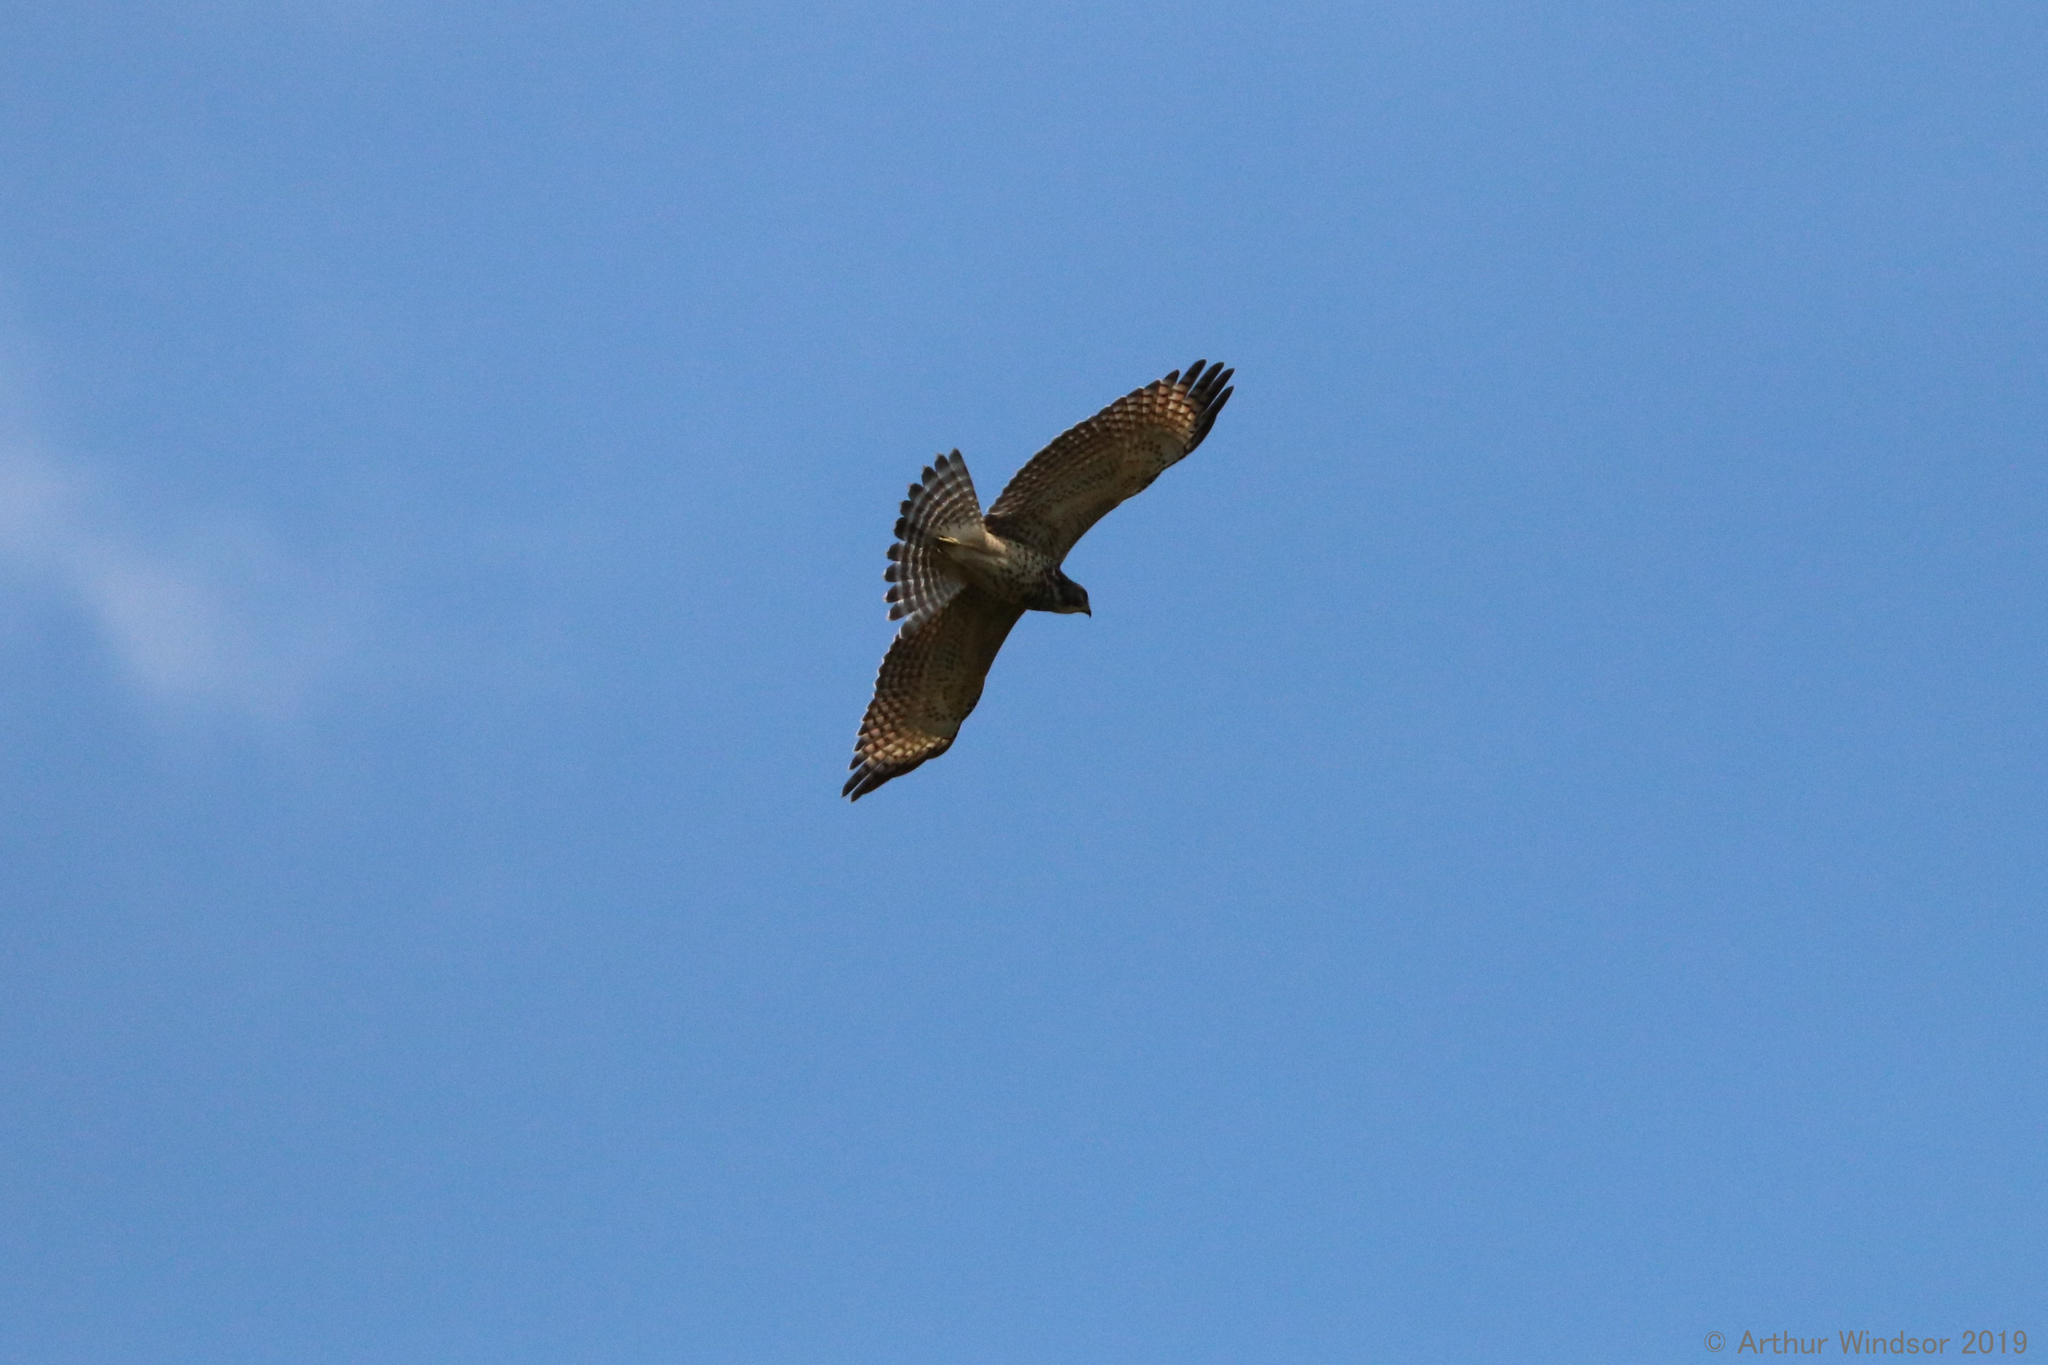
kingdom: Animalia
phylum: Chordata
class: Aves
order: Accipitriformes
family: Accipitridae
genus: Buteo
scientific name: Buteo lineatus
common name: Red-shouldered hawk
